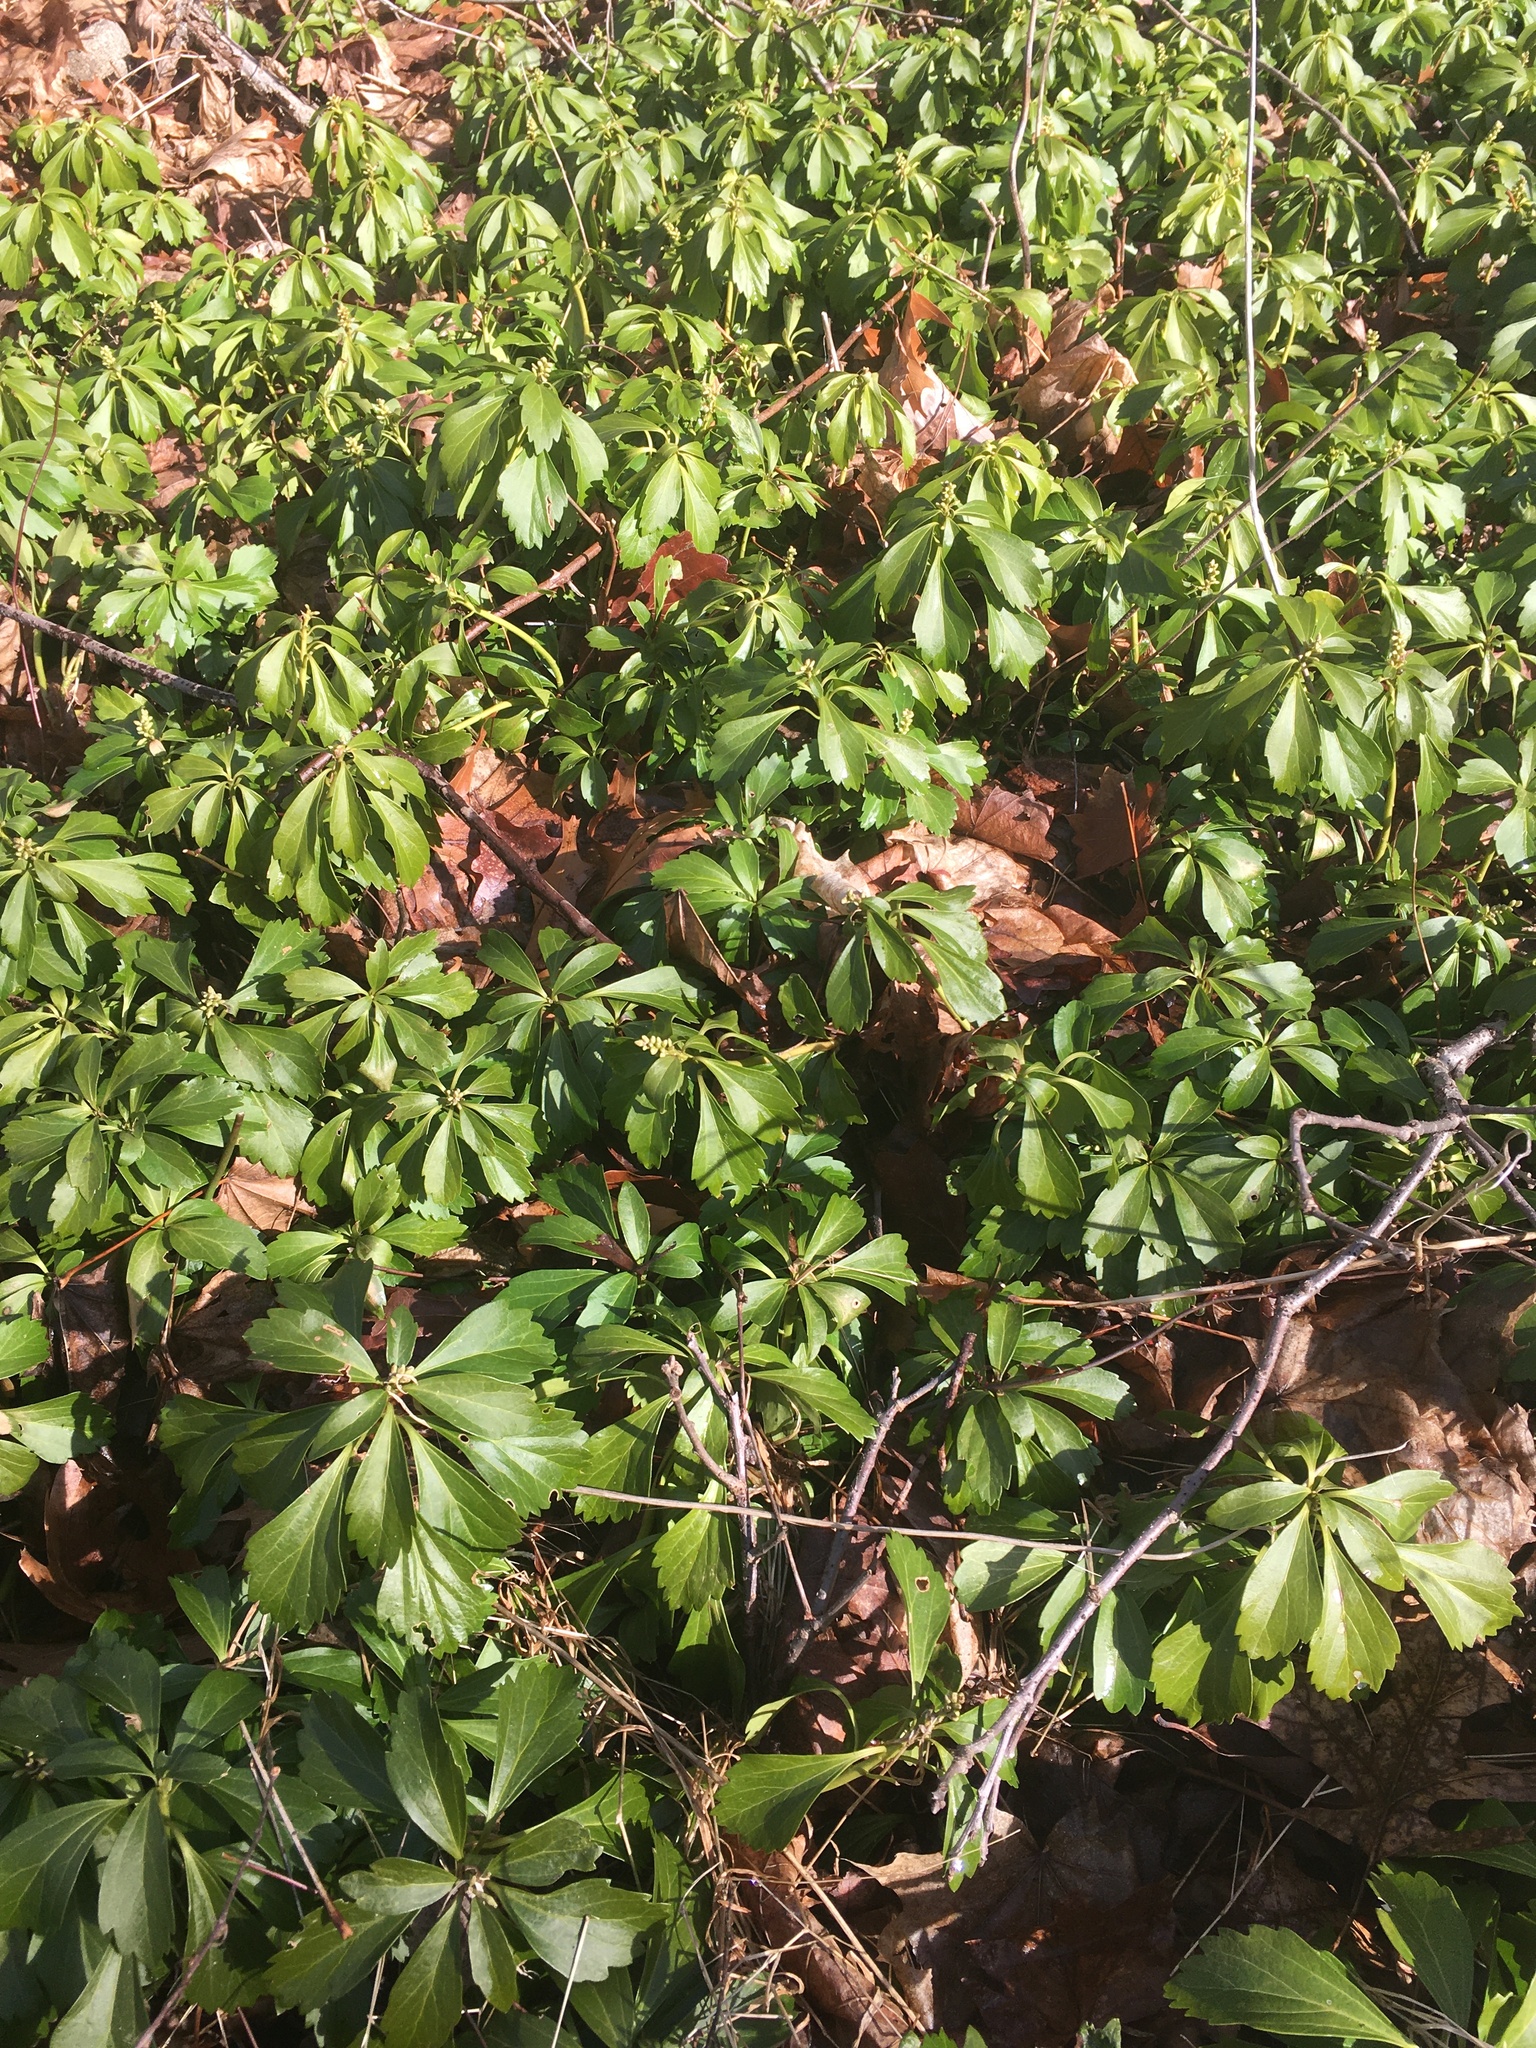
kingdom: Plantae
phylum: Tracheophyta
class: Magnoliopsida
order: Buxales
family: Buxaceae
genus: Pachysandra
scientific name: Pachysandra terminalis
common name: Japanese pachysandra
